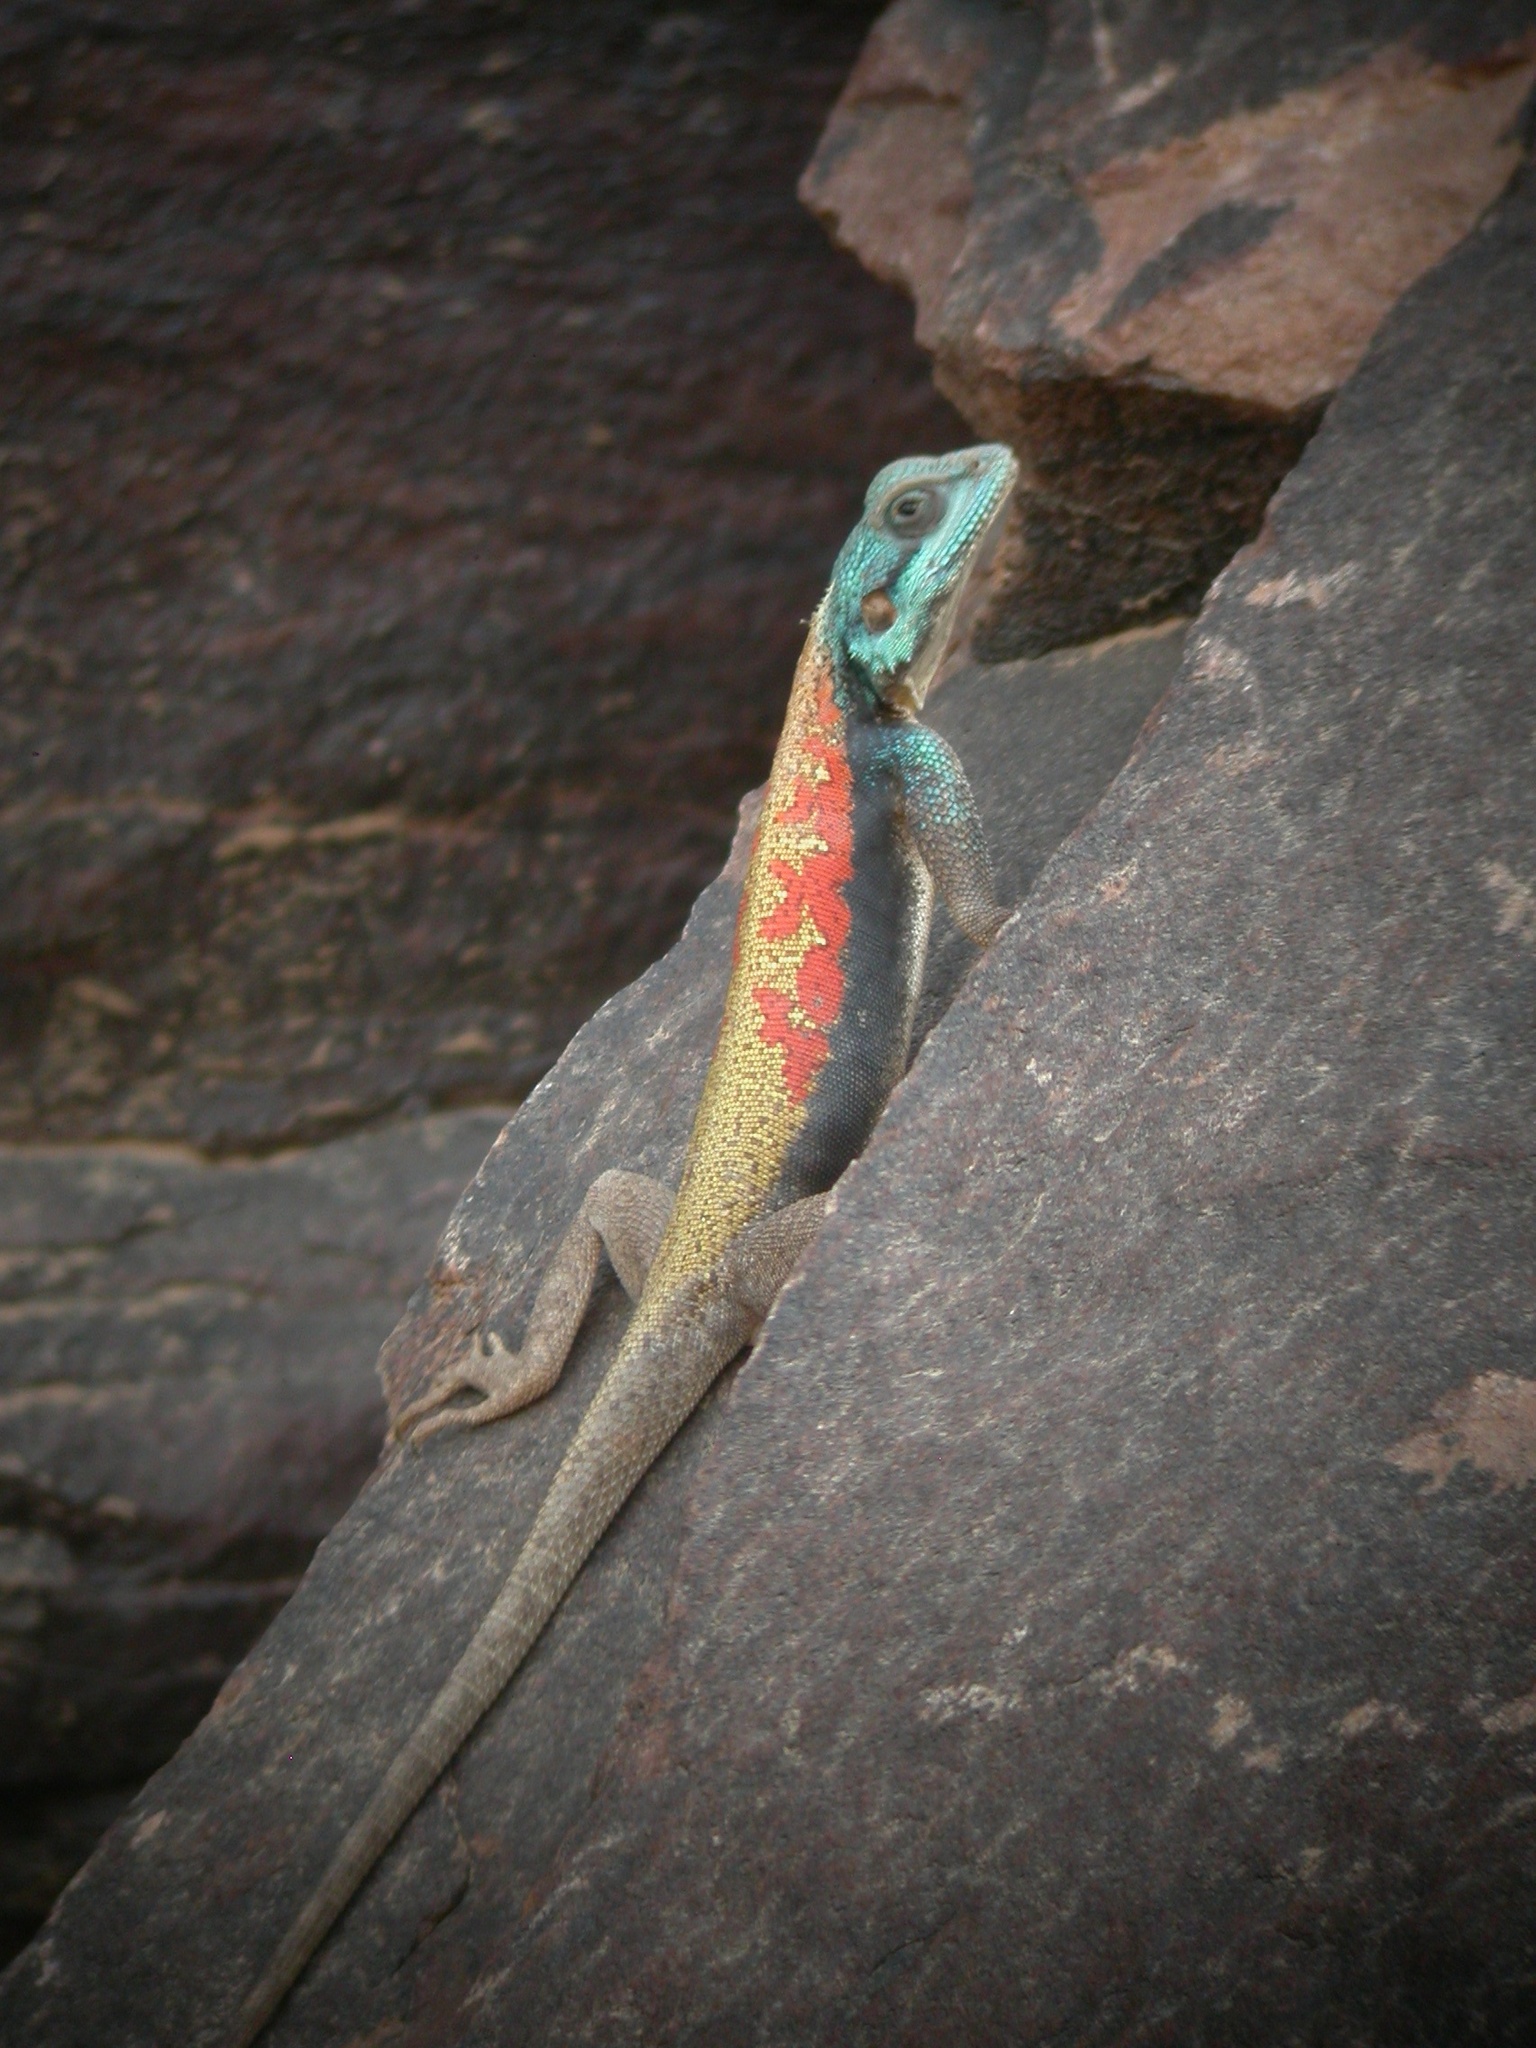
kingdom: Animalia
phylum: Chordata
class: Squamata
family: Agamidae
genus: Agama
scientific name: Agama boulengeri
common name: Boulenger's agama
